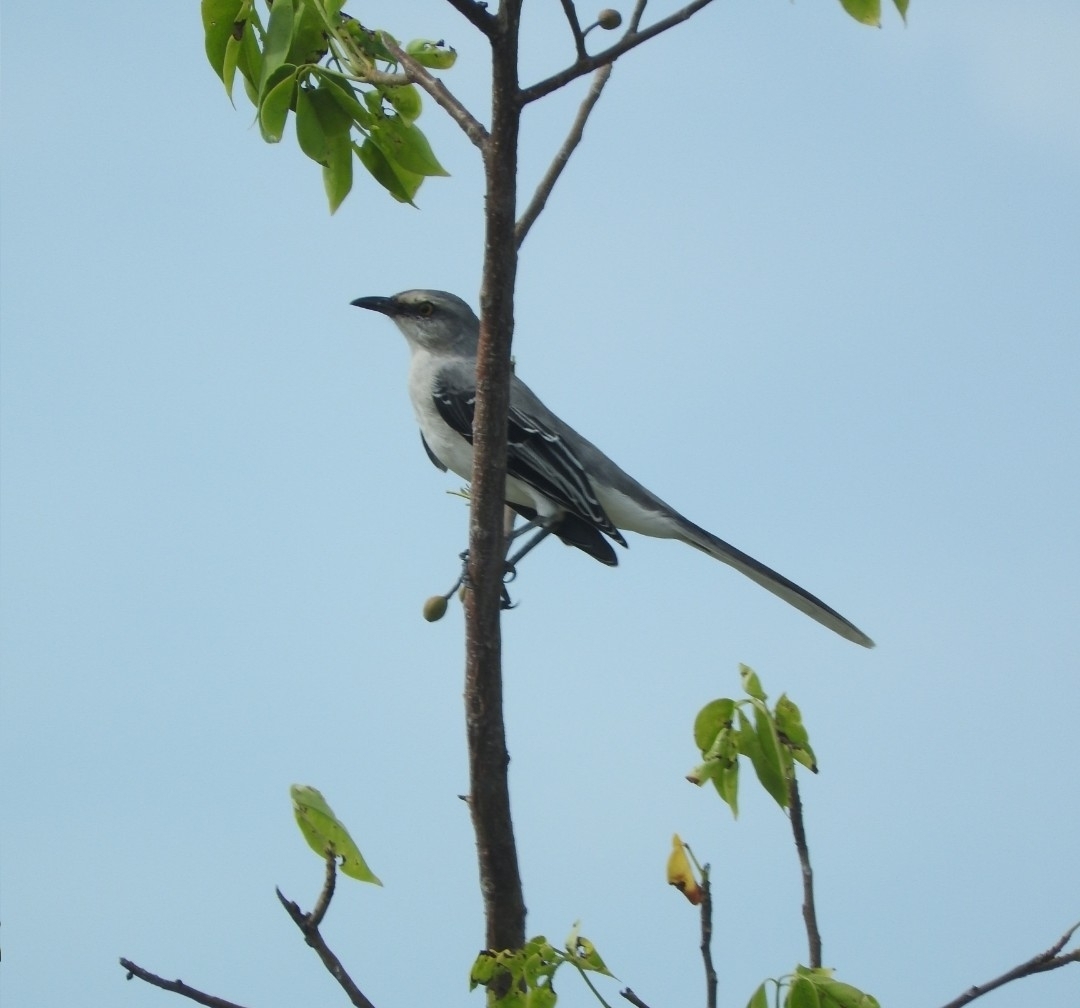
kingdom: Animalia
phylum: Chordata
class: Aves
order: Passeriformes
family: Mimidae
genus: Mimus
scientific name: Mimus gilvus
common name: Tropical mockingbird
